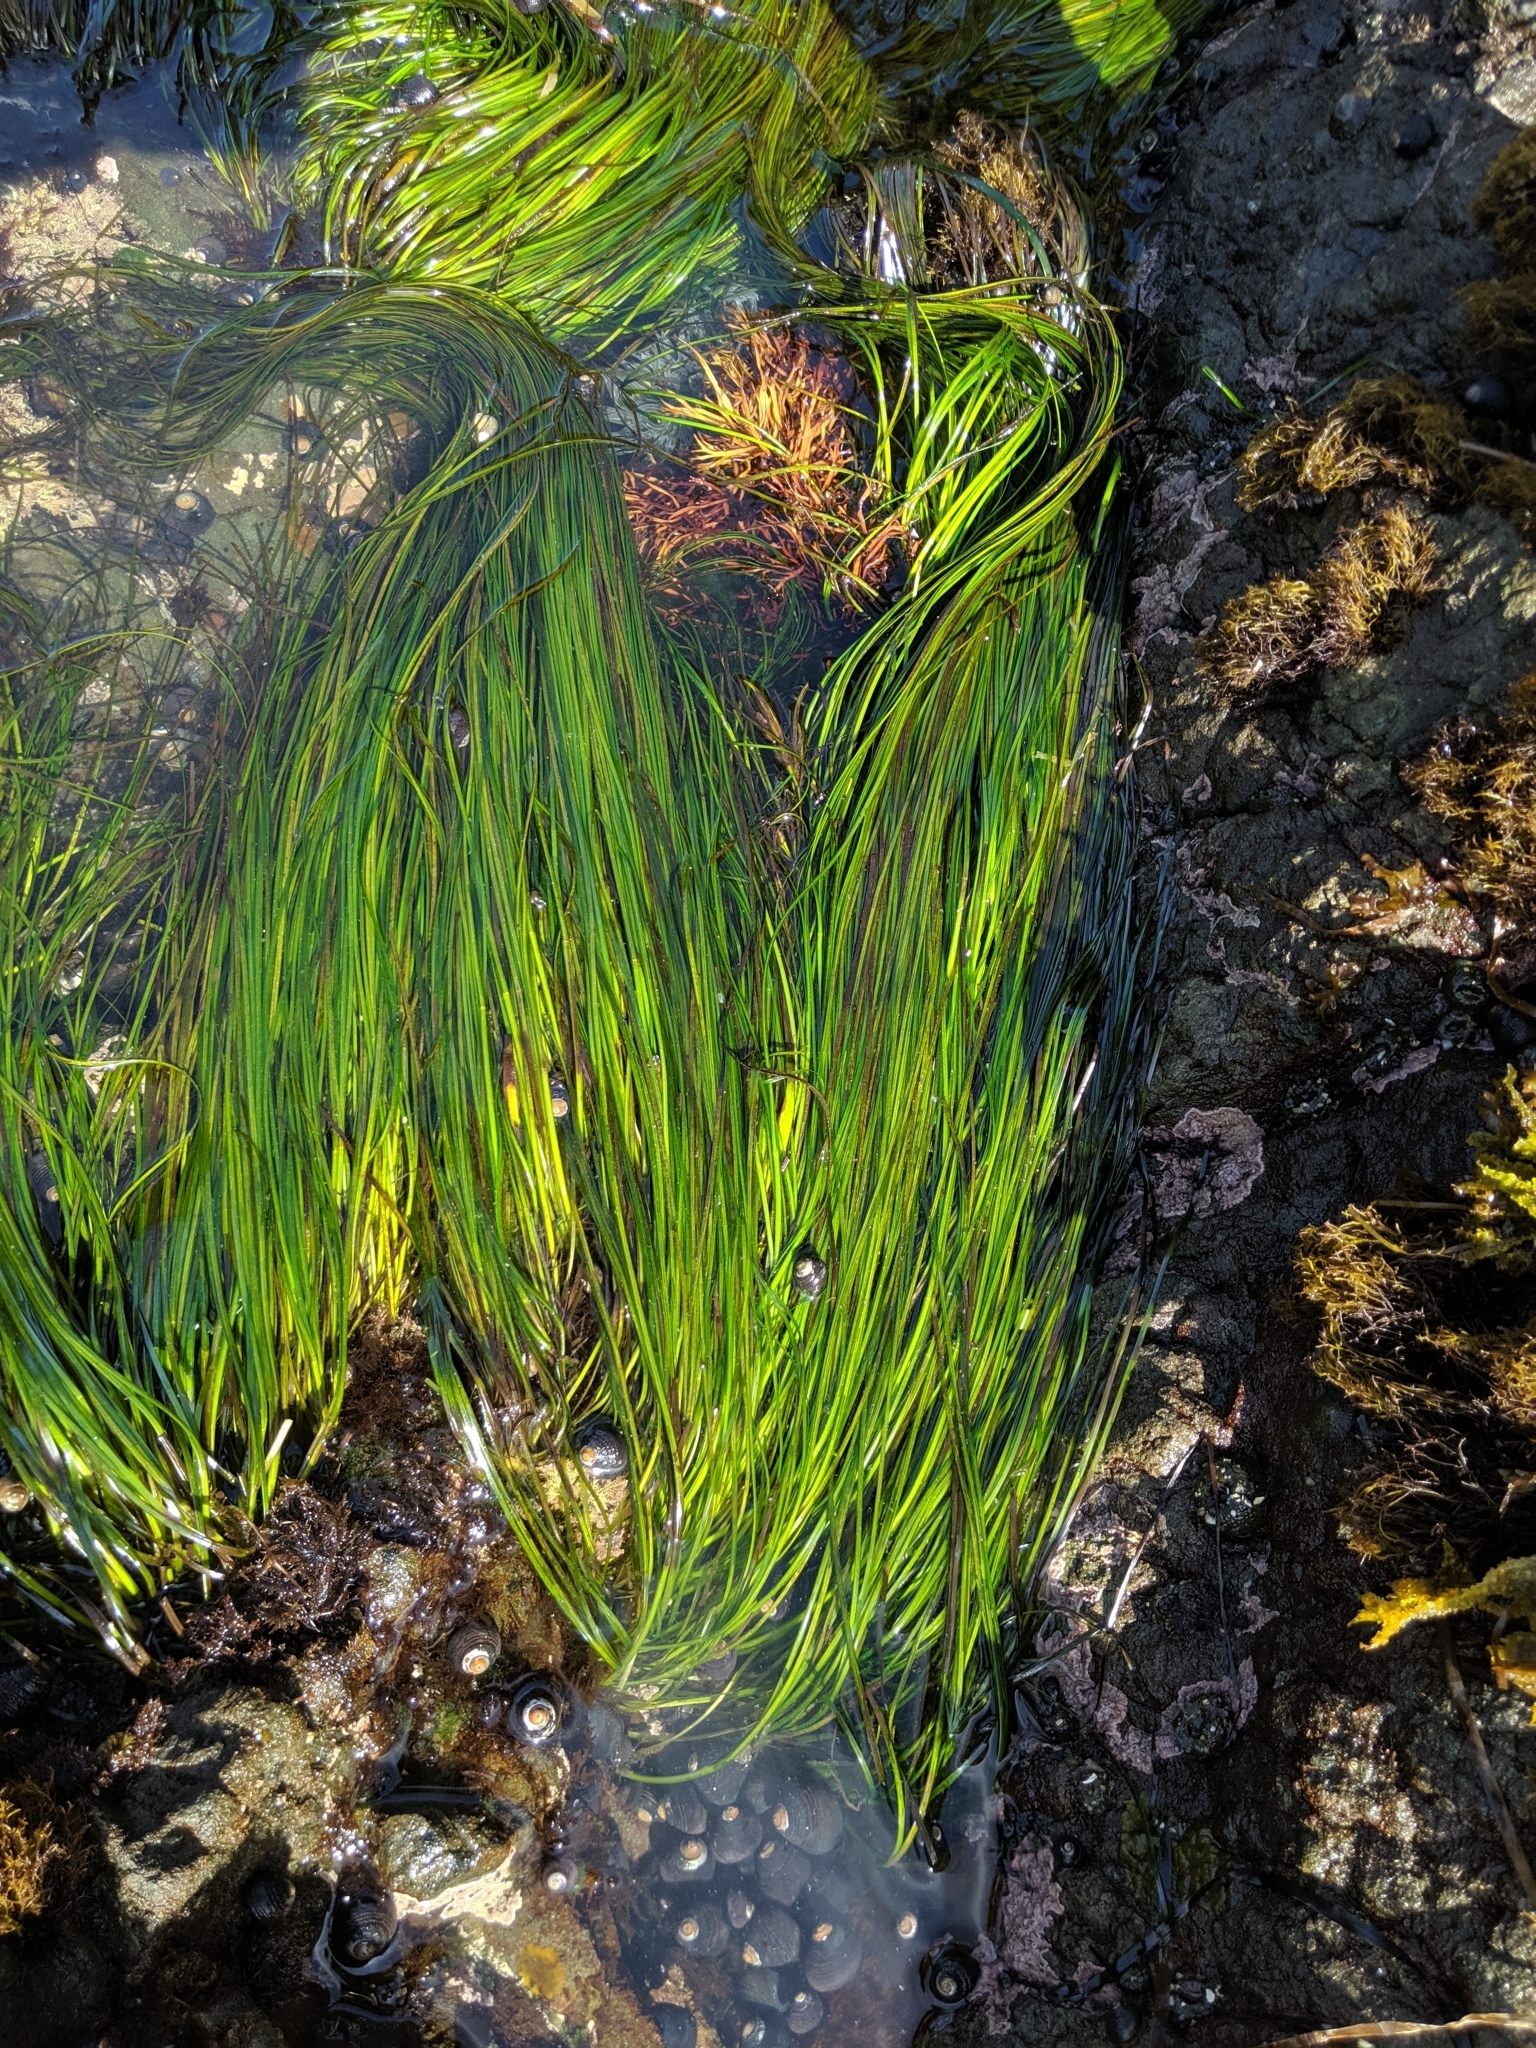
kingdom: Plantae
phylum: Tracheophyta
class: Liliopsida
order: Alismatales
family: Zosteraceae
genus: Phyllospadix
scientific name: Phyllospadix torreyi
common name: Surfgrass
